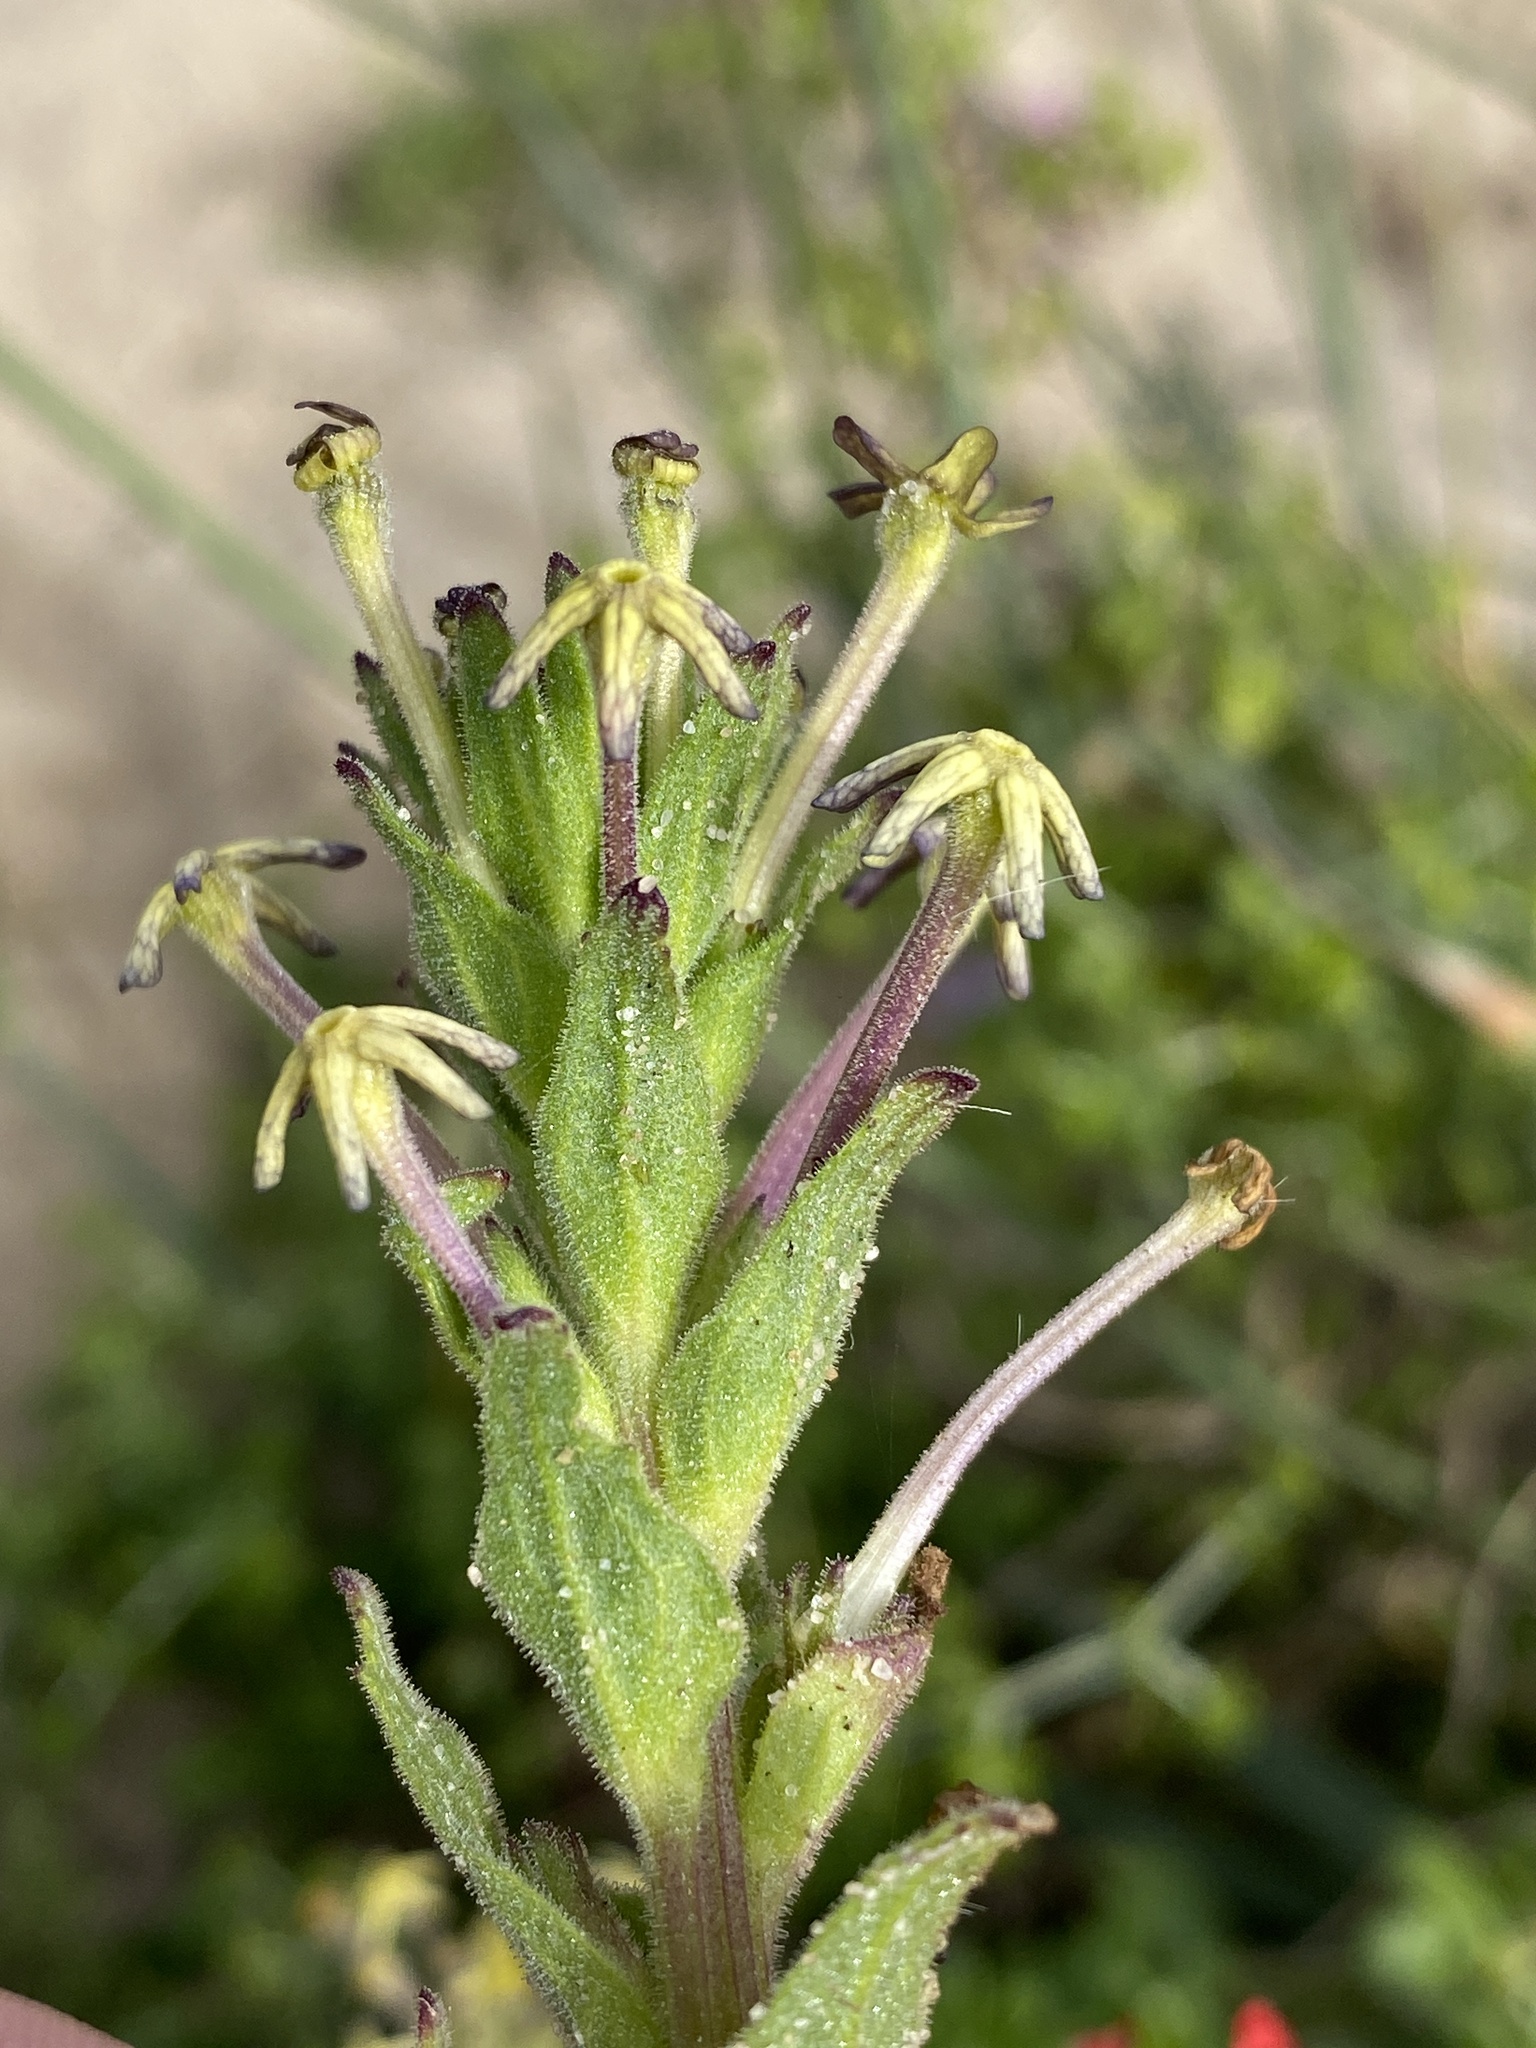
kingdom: Plantae
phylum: Tracheophyta
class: Magnoliopsida
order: Lamiales
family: Scrophulariaceae
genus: Lyperia
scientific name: Lyperia tristis
